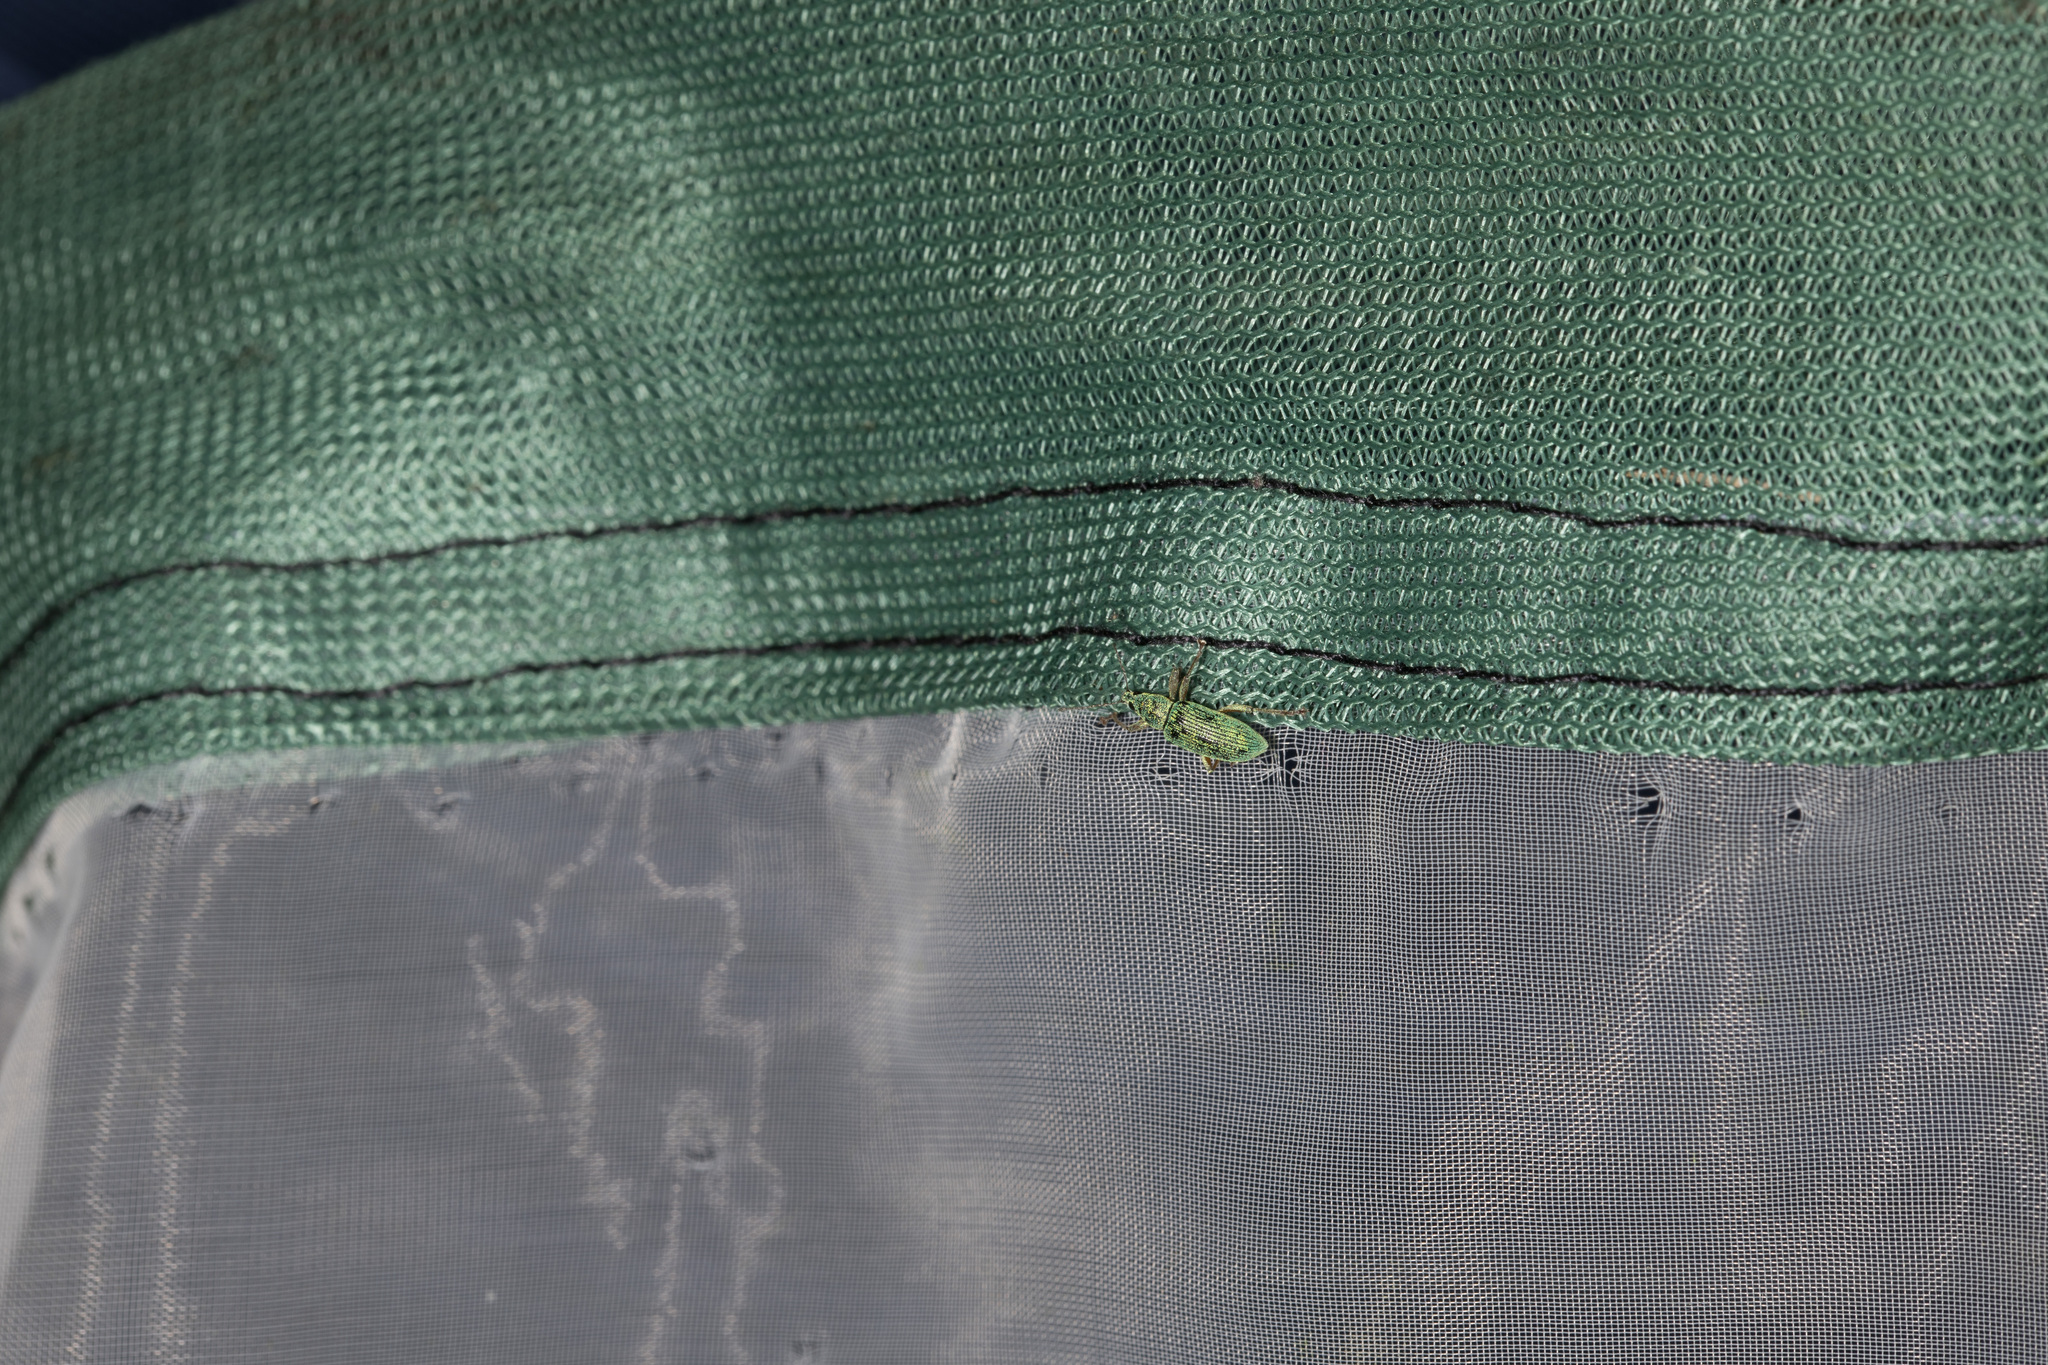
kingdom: Animalia
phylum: Arthropoda
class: Insecta
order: Coleoptera
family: Curculionidae
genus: Polydrusus
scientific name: Polydrusus formosus
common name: Weevil
